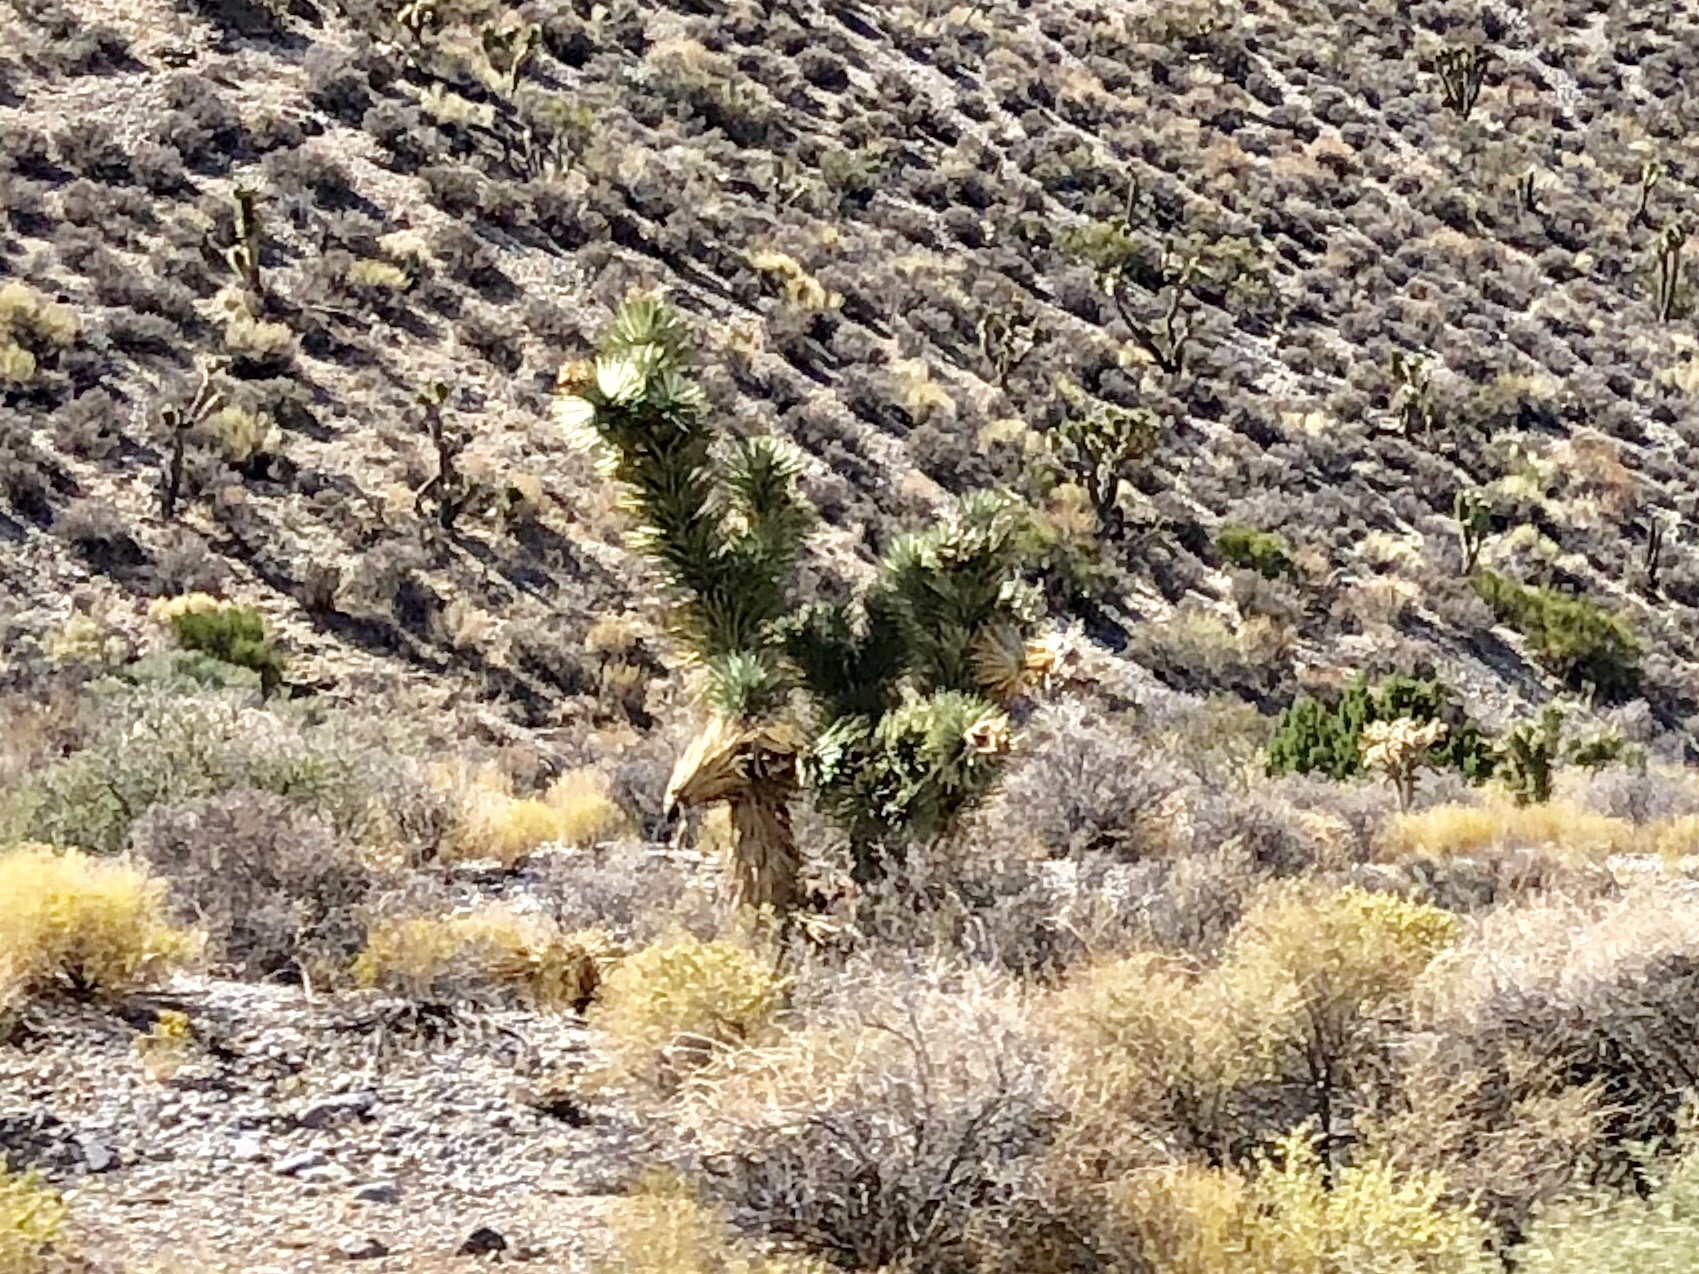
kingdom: Plantae
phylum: Tracheophyta
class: Liliopsida
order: Asparagales
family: Asparagaceae
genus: Yucca
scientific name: Yucca brevifolia
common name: Joshua tree
